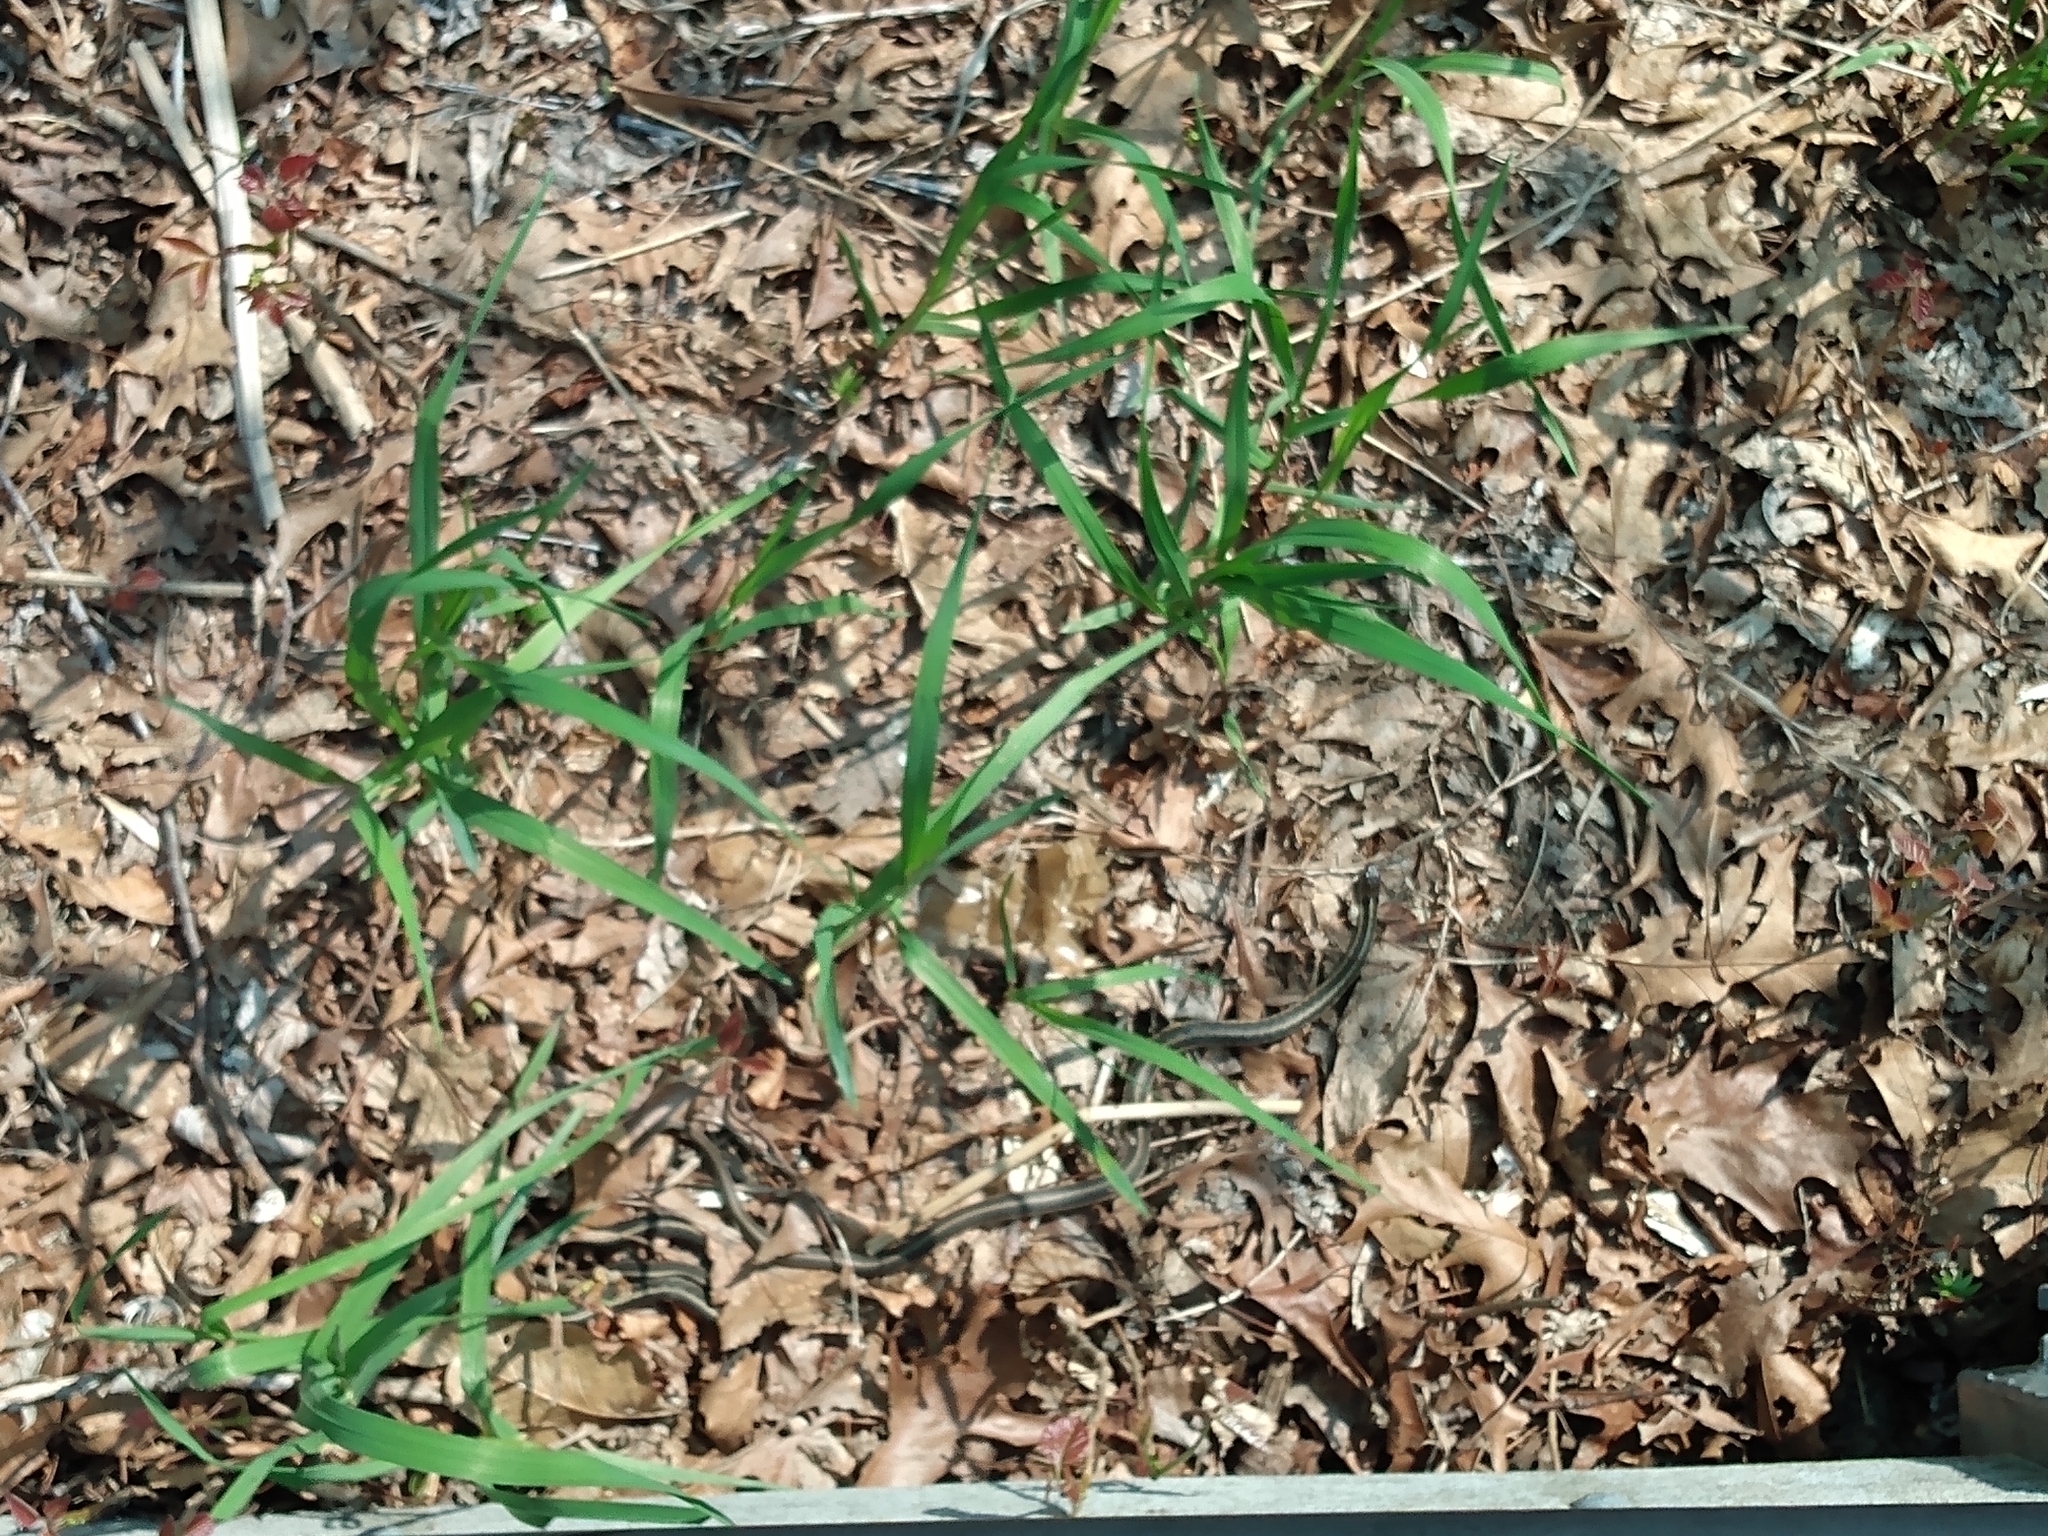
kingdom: Animalia
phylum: Chordata
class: Squamata
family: Colubridae
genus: Thamnophis
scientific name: Thamnophis sirtalis
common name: Common garter snake
